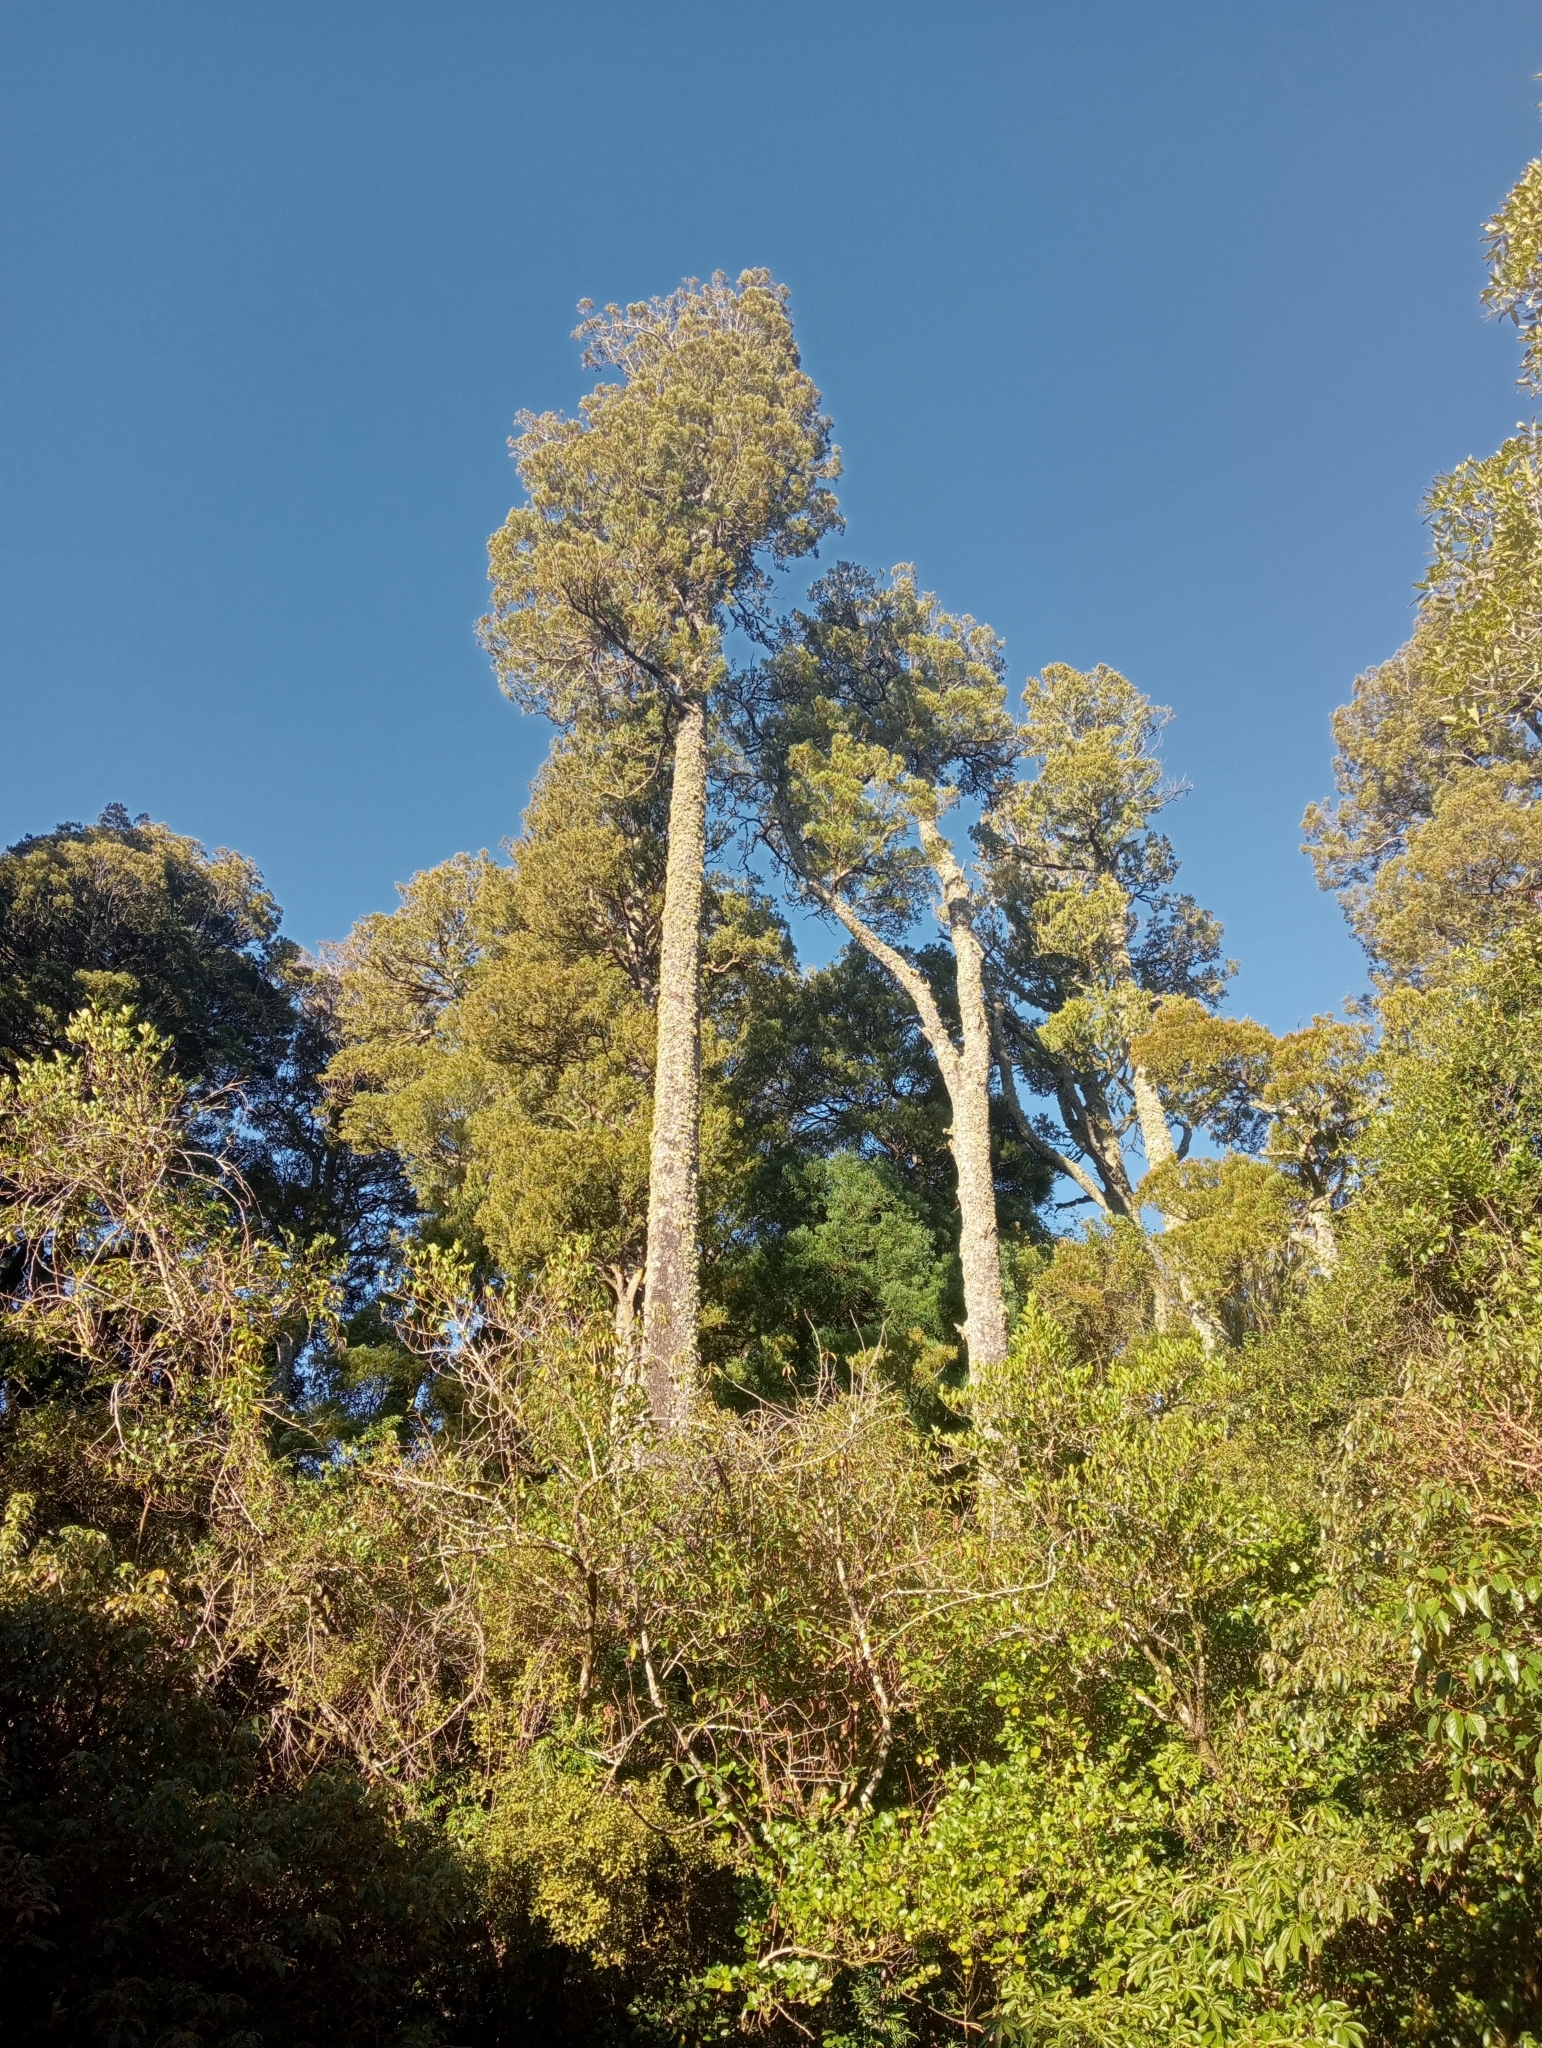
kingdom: Plantae
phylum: Tracheophyta
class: Pinopsida
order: Pinales
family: Podocarpaceae
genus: Dacrycarpus
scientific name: Dacrycarpus dacrydioides
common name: White pine
